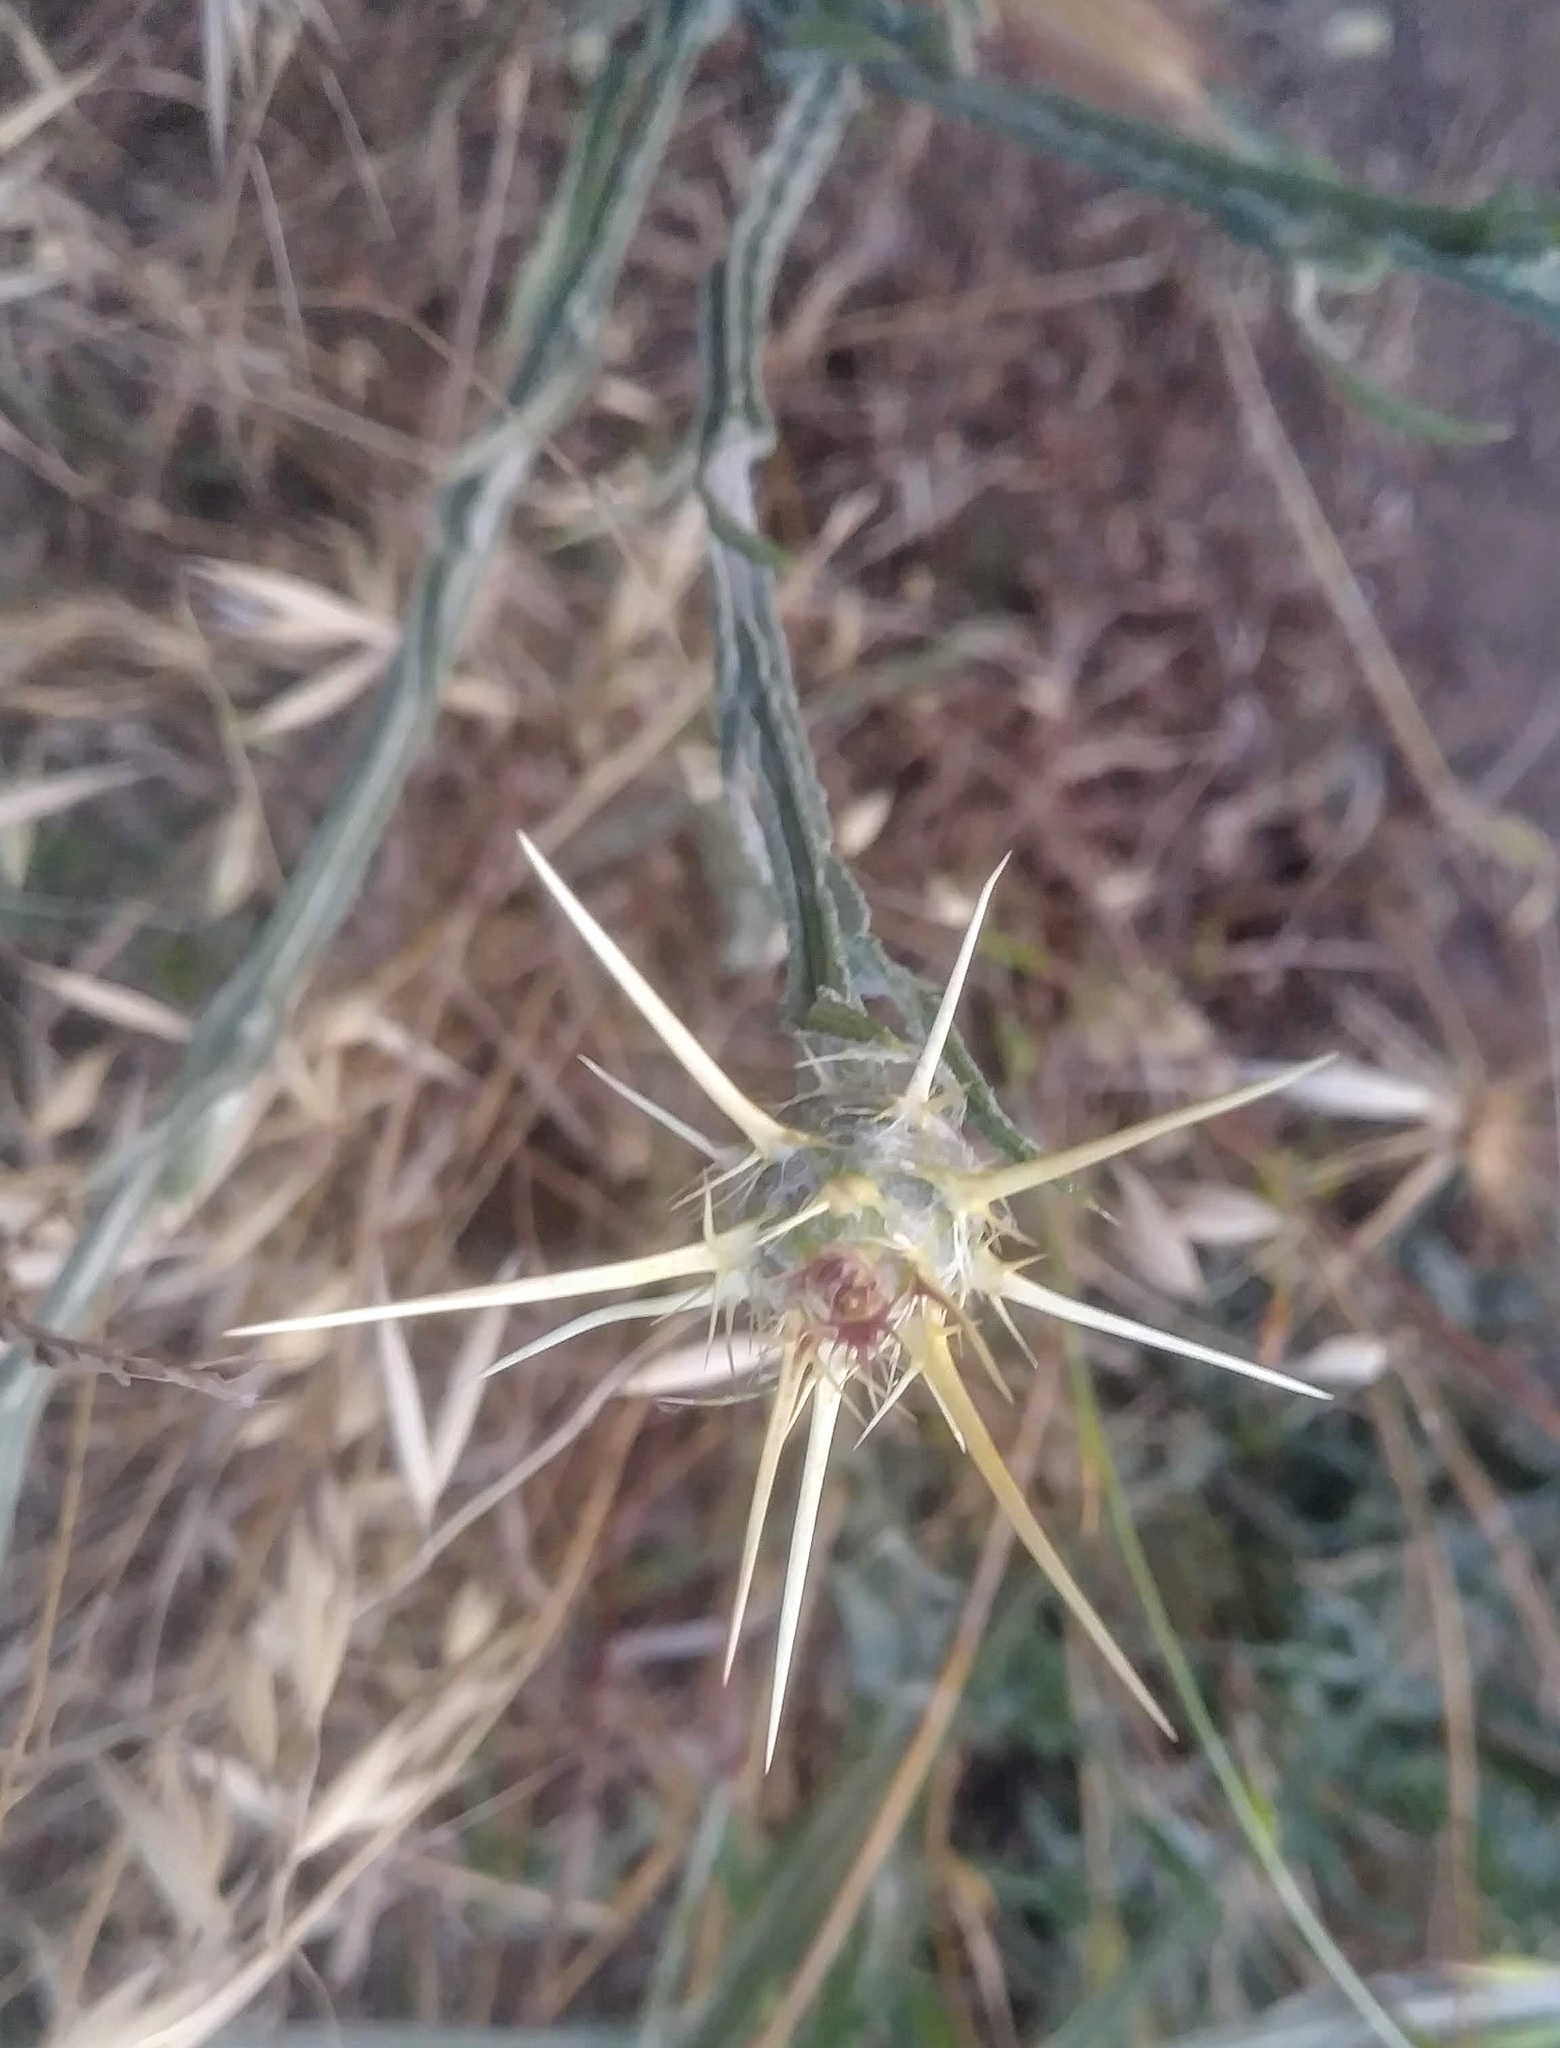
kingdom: Plantae
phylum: Tracheophyta
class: Magnoliopsida
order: Asterales
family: Asteraceae
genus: Centaurea
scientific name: Centaurea solstitialis
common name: Yellow star-thistle
